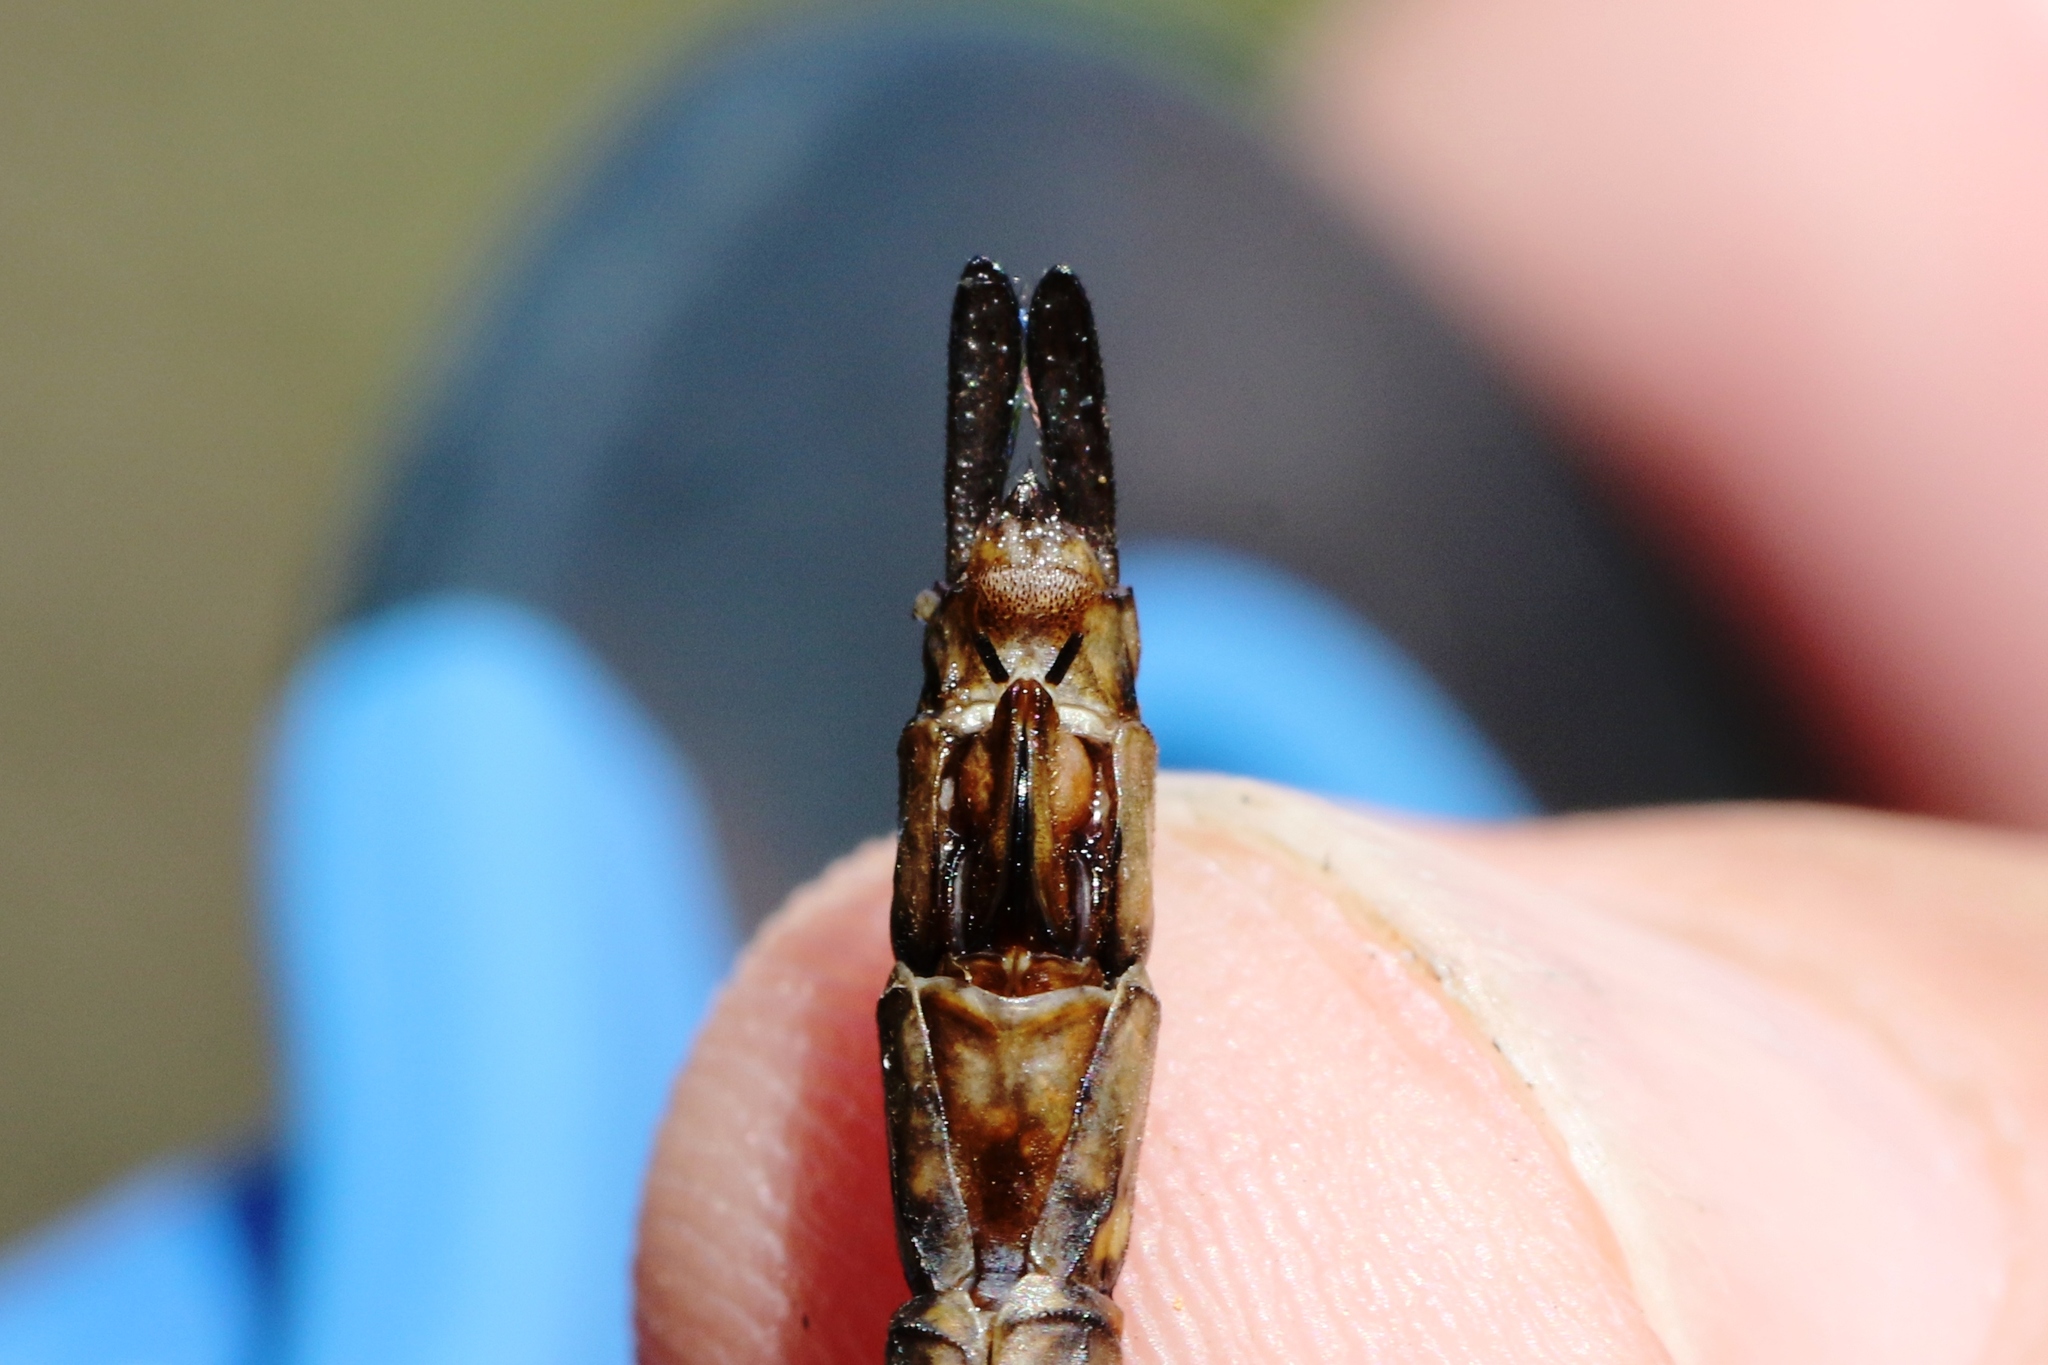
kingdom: Animalia
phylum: Arthropoda
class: Insecta
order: Odonata
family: Aeshnidae
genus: Boyeria
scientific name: Boyeria vinosa
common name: Fawn darner
